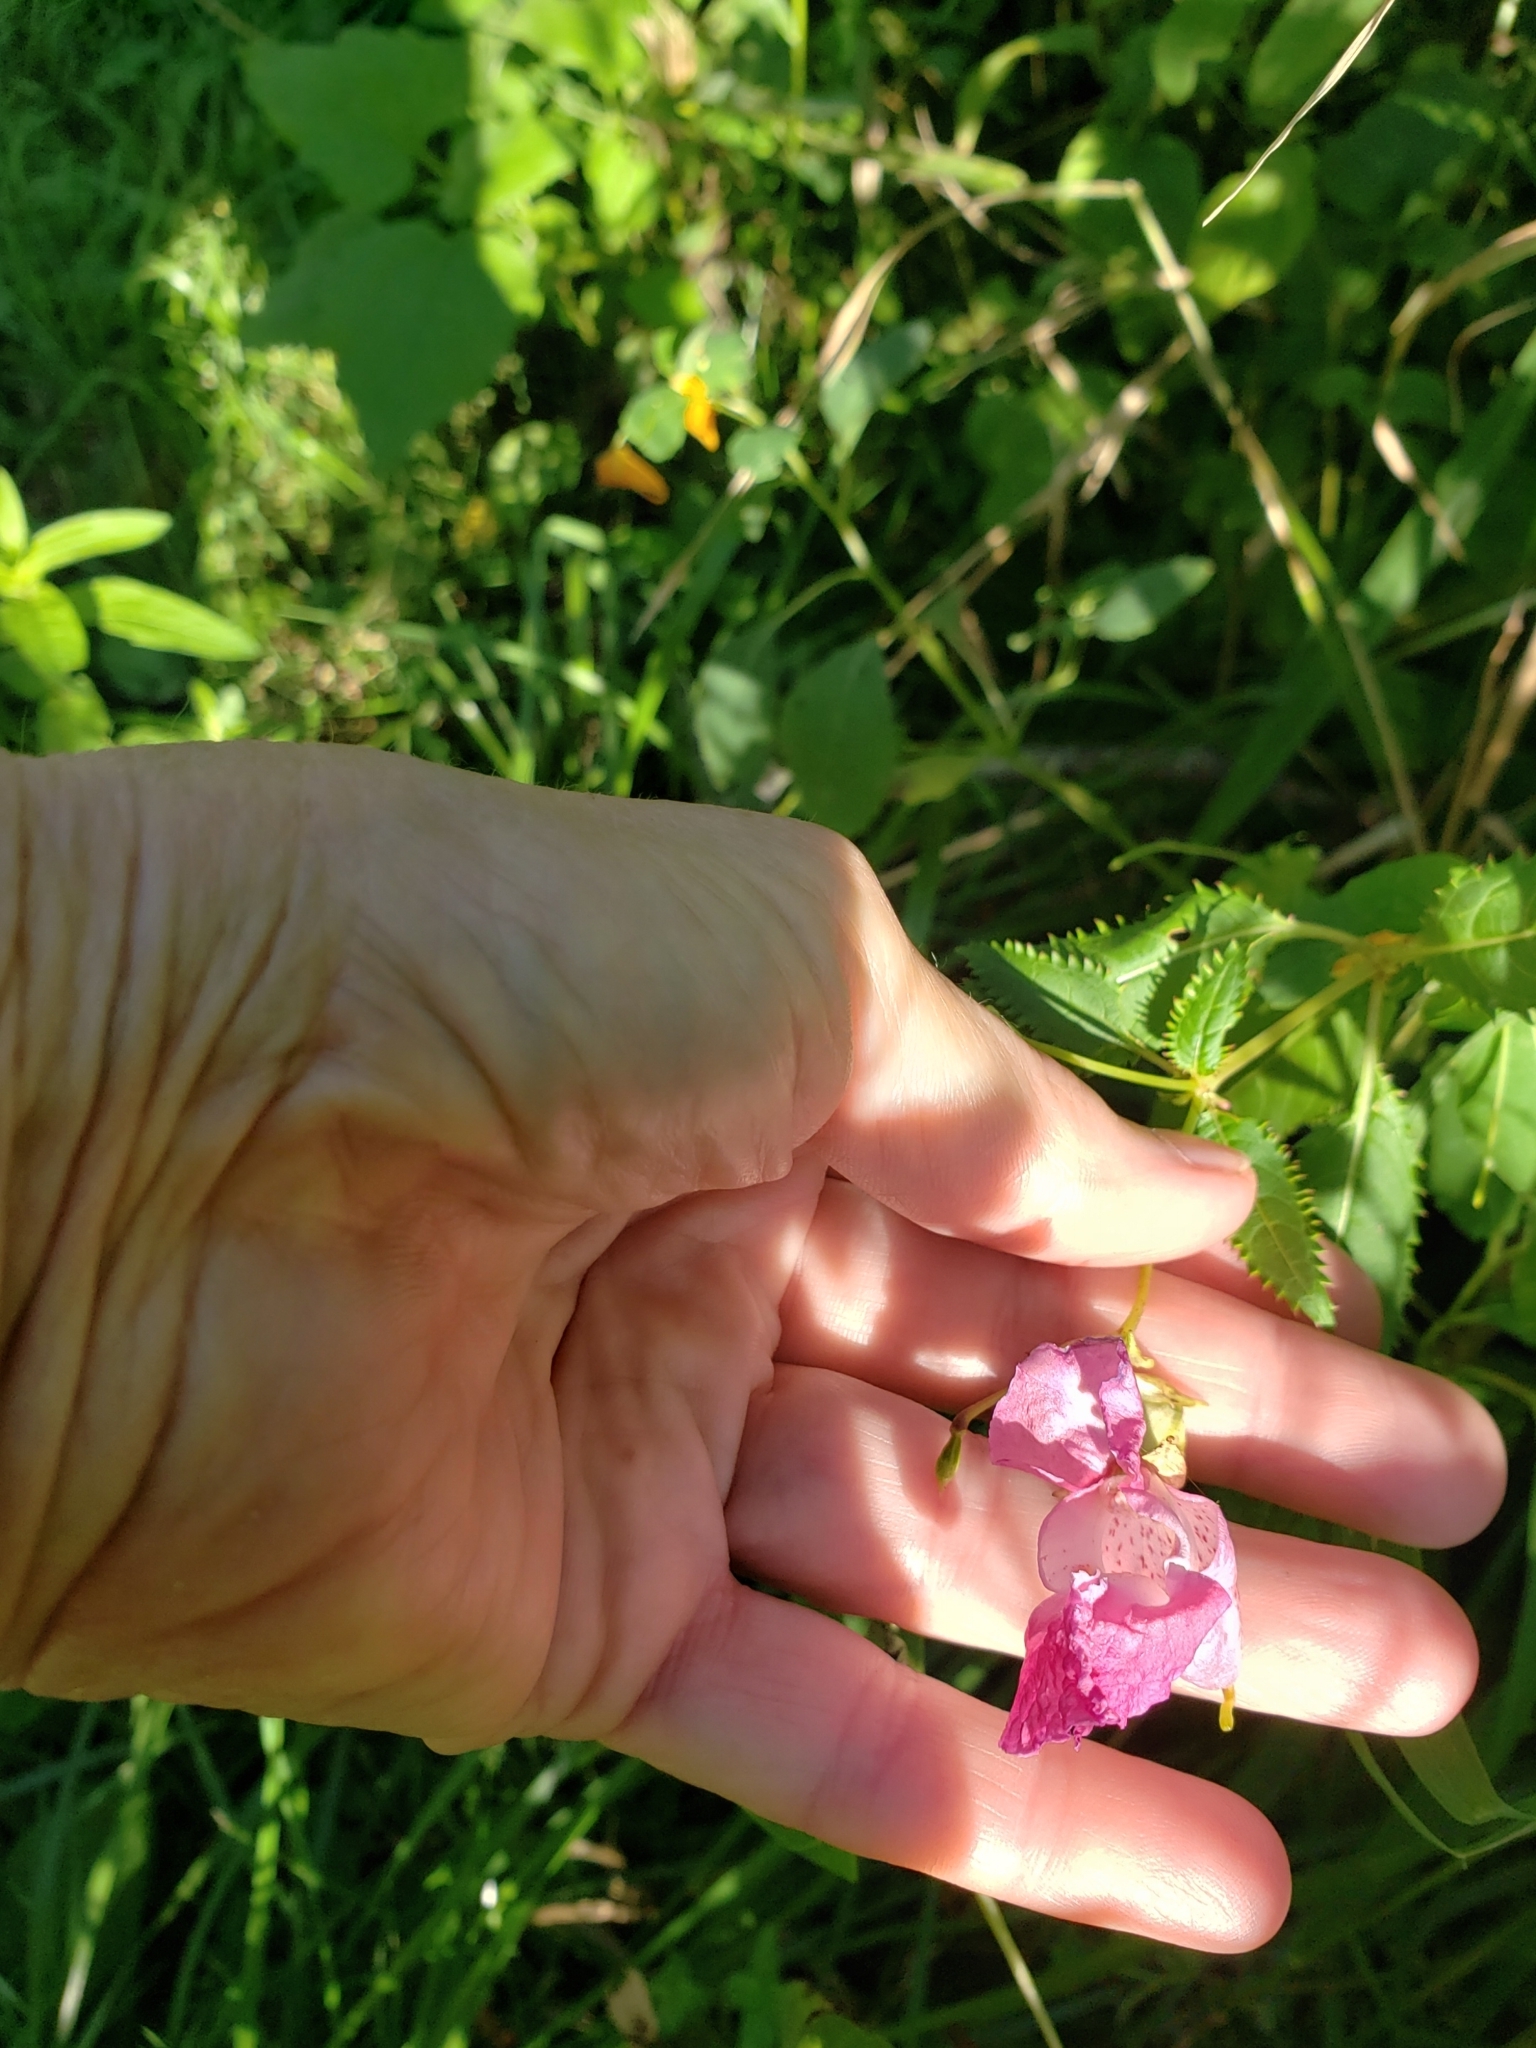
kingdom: Plantae
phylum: Tracheophyta
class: Magnoliopsida
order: Ericales
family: Balsaminaceae
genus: Impatiens
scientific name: Impatiens glandulifera
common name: Himalayan balsam
